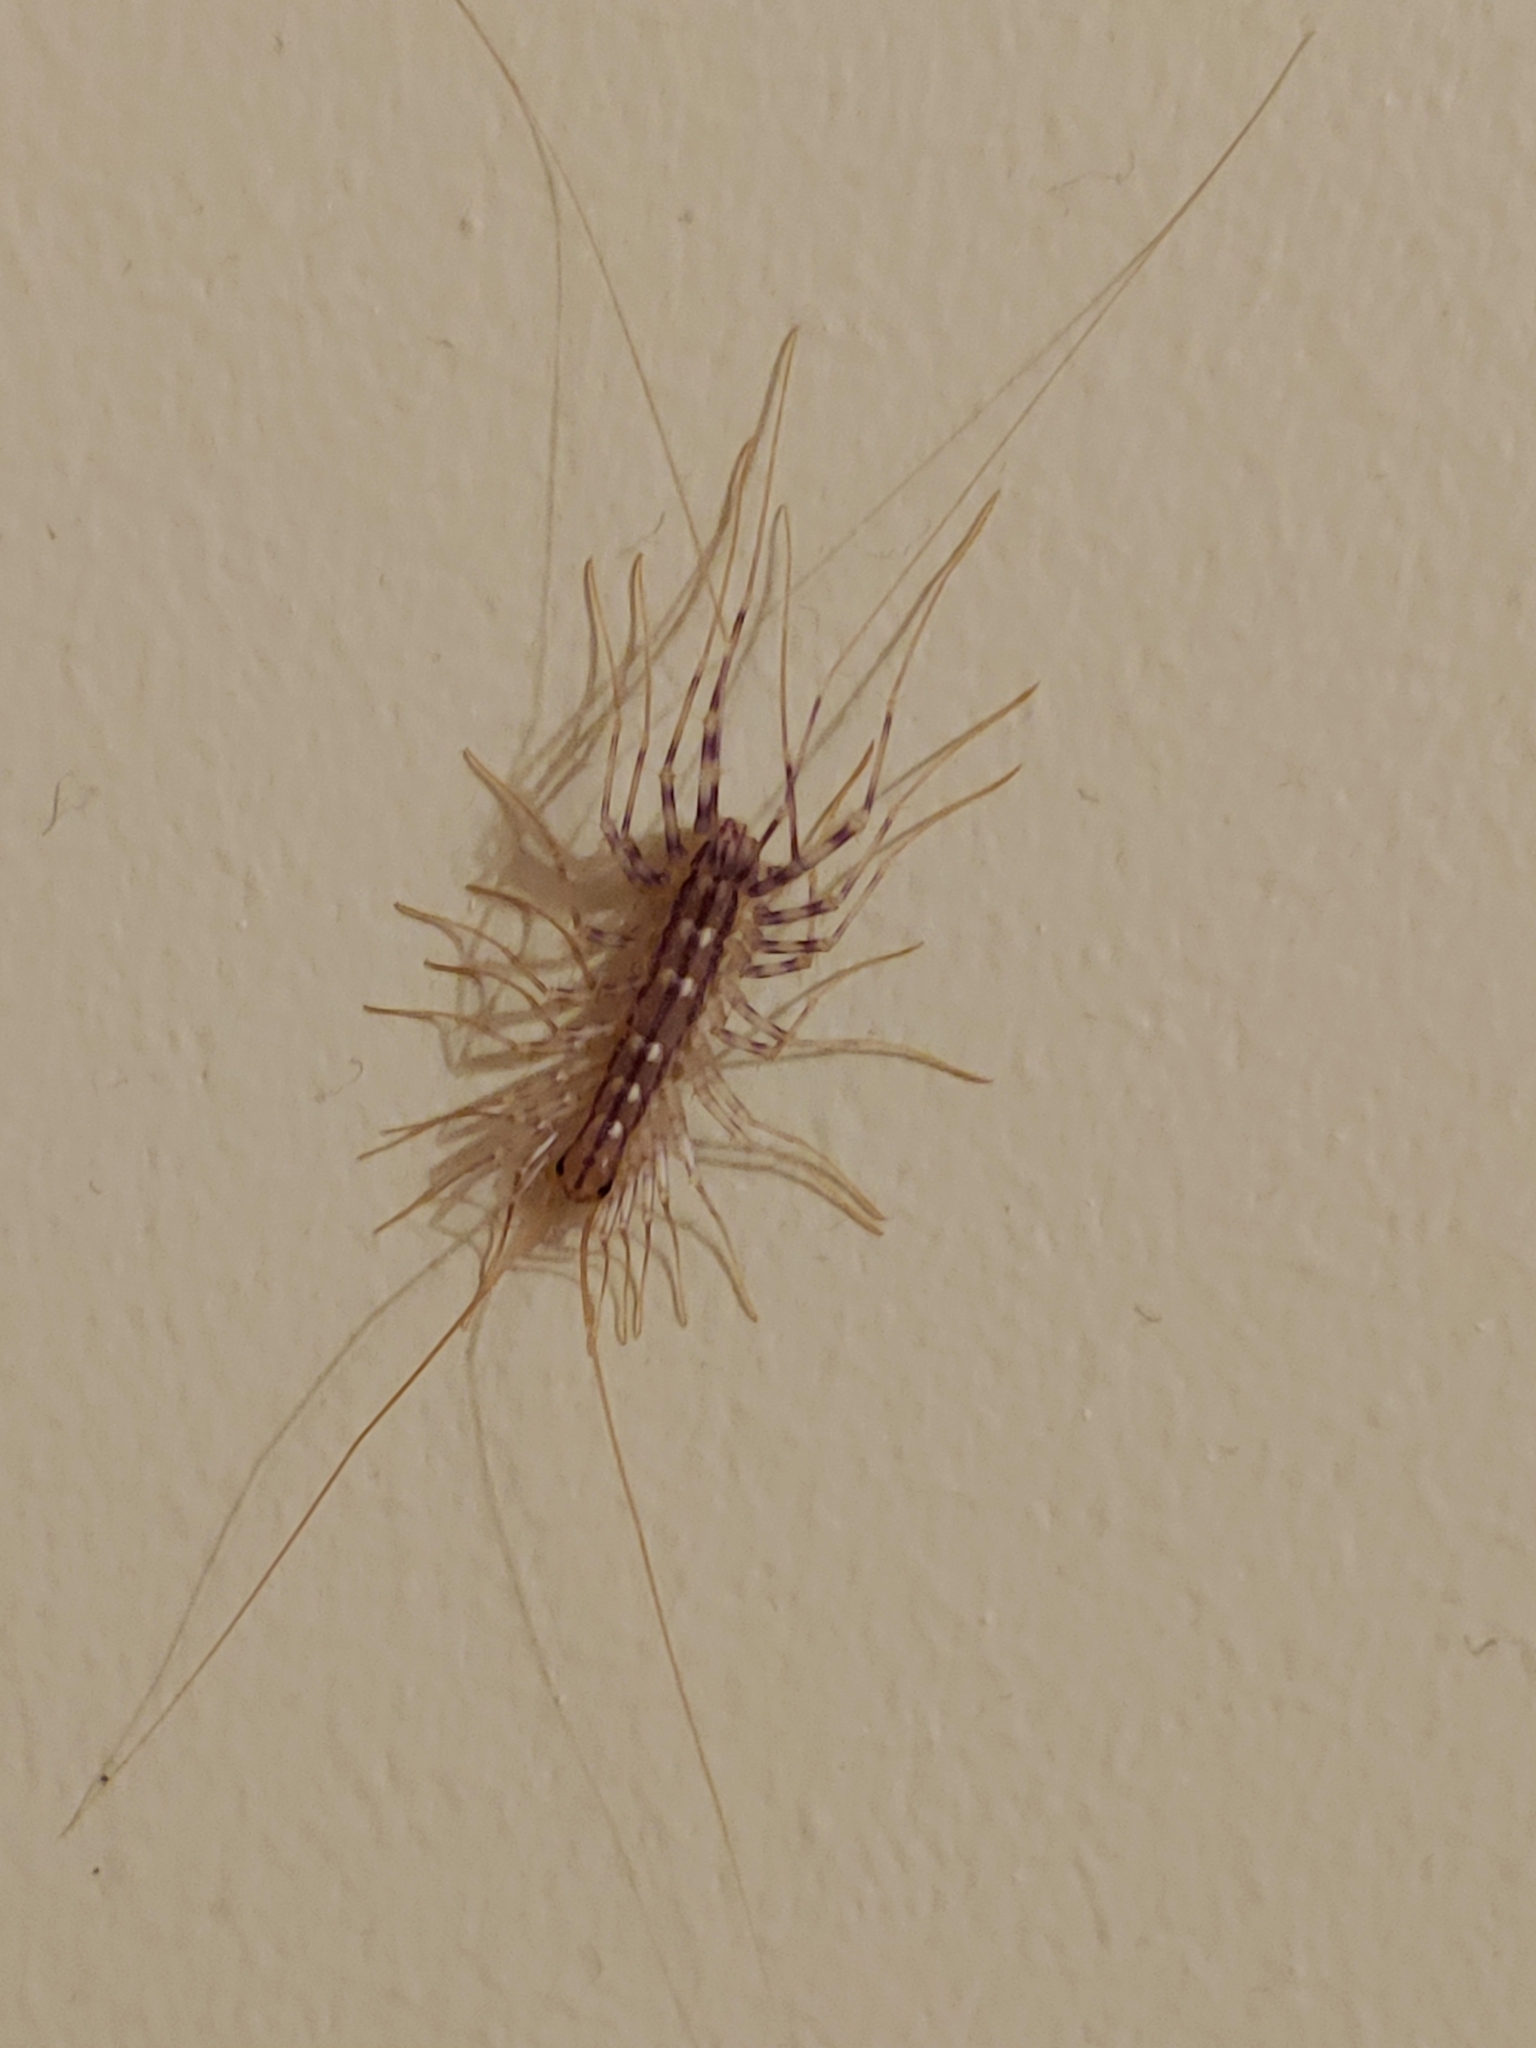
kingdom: Animalia
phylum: Arthropoda
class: Chilopoda
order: Scutigeromorpha
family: Scutigeridae
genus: Scutigera
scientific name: Scutigera coleoptrata
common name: House centipede
